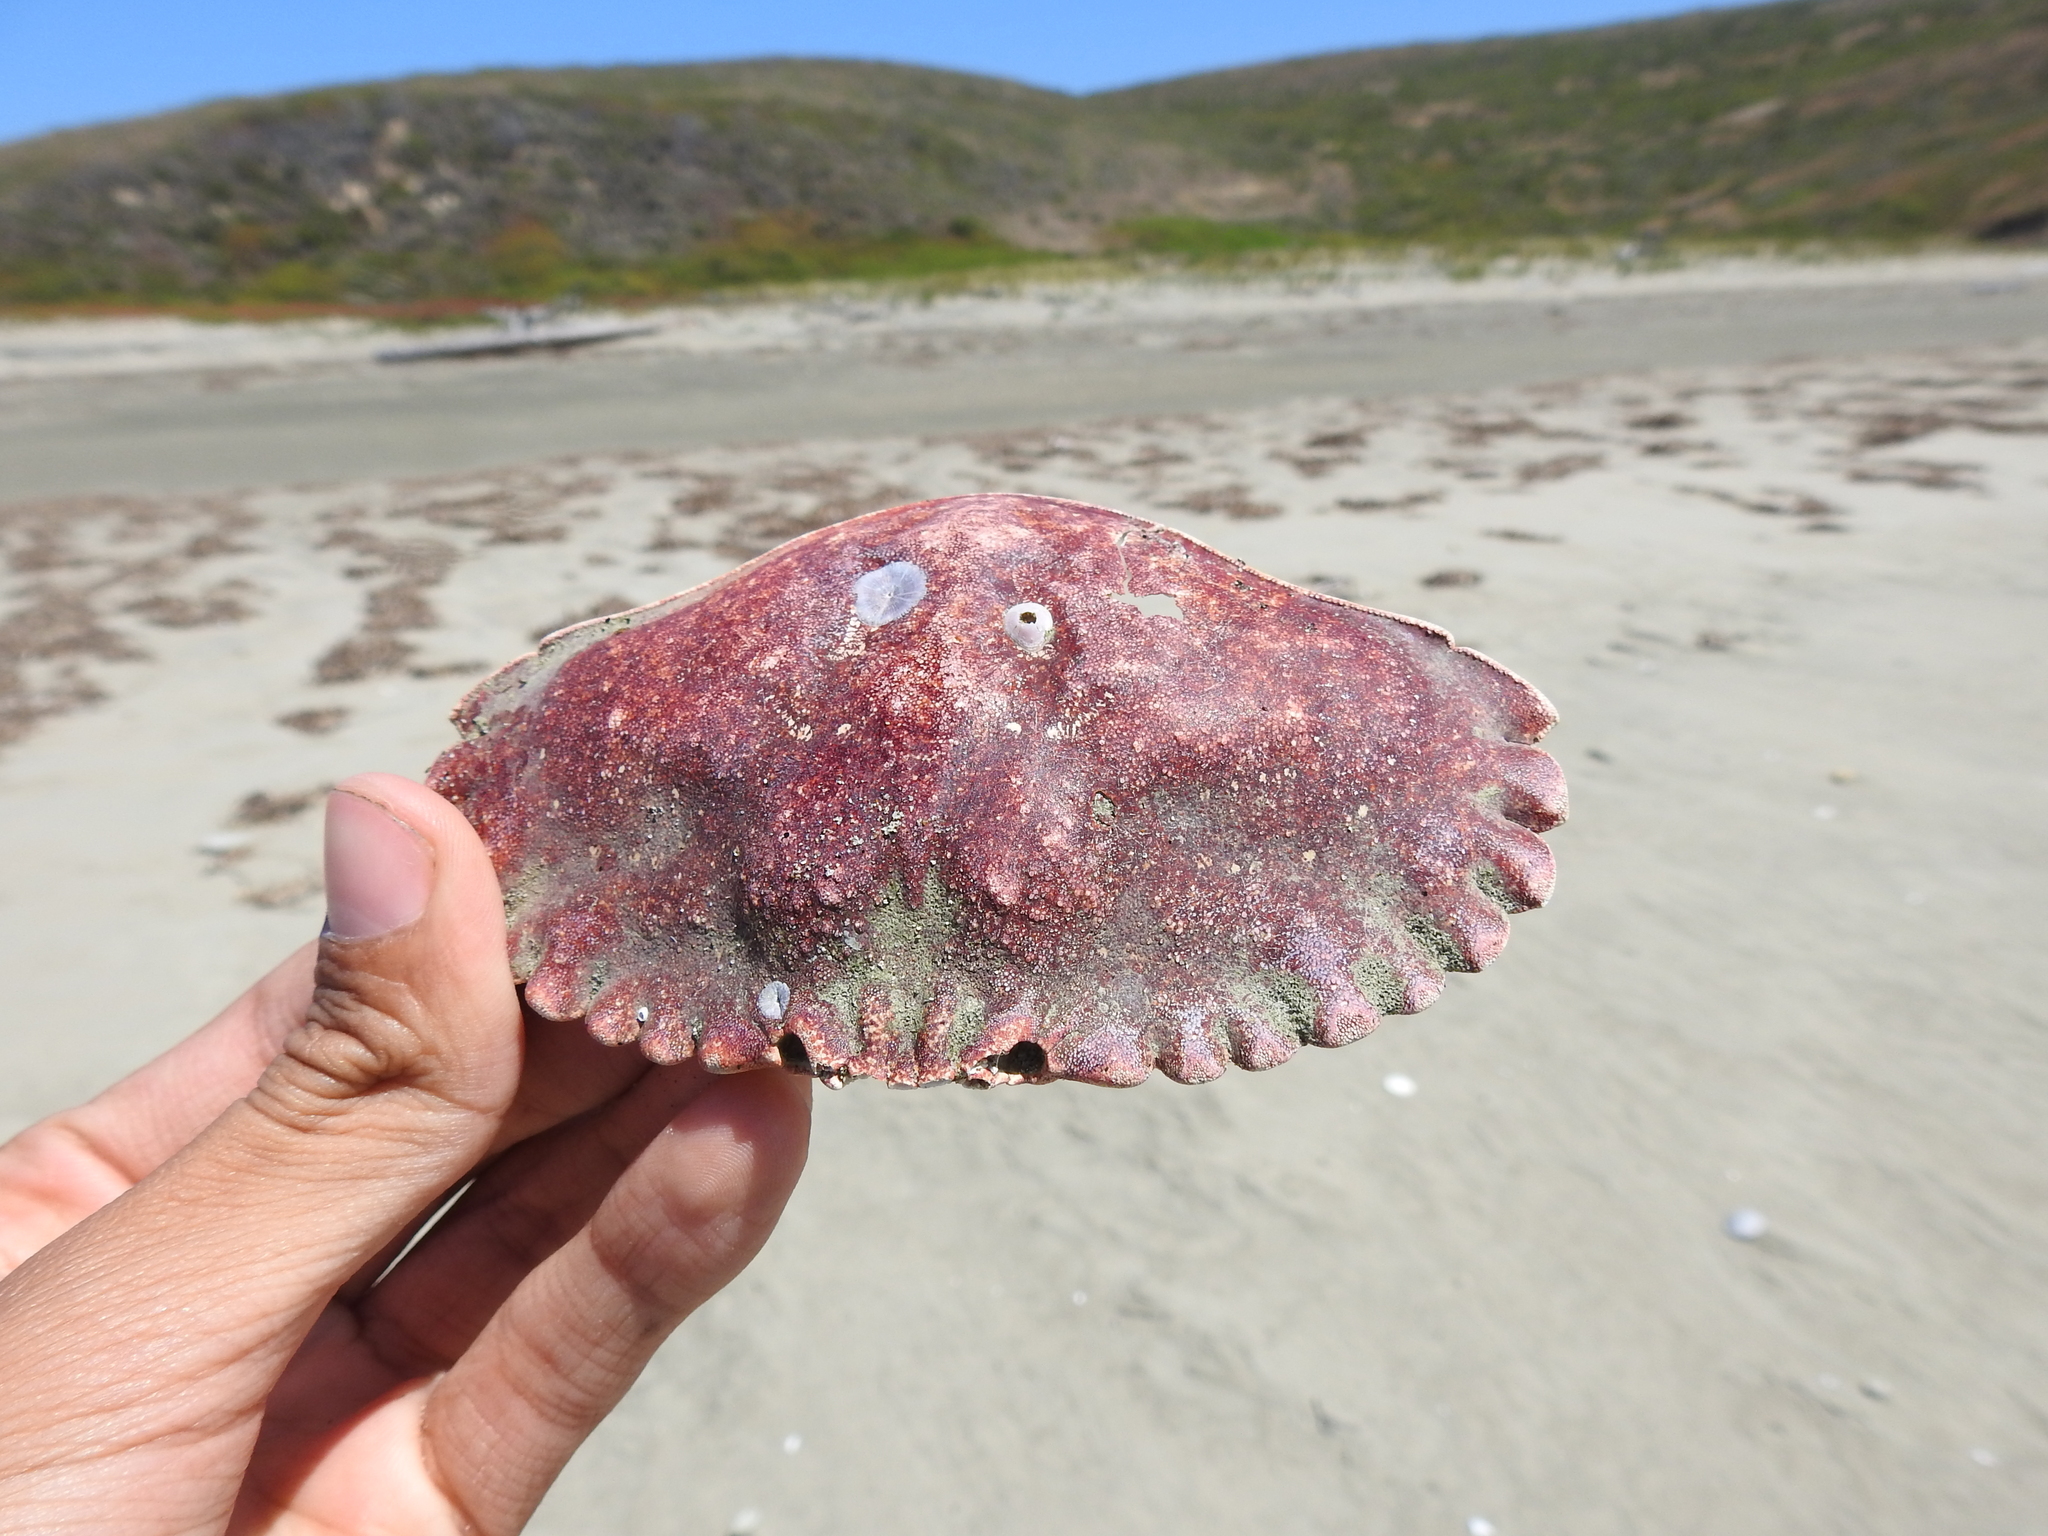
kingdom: Animalia
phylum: Arthropoda
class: Malacostraca
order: Decapoda
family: Cancridae
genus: Cancer
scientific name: Cancer productus
